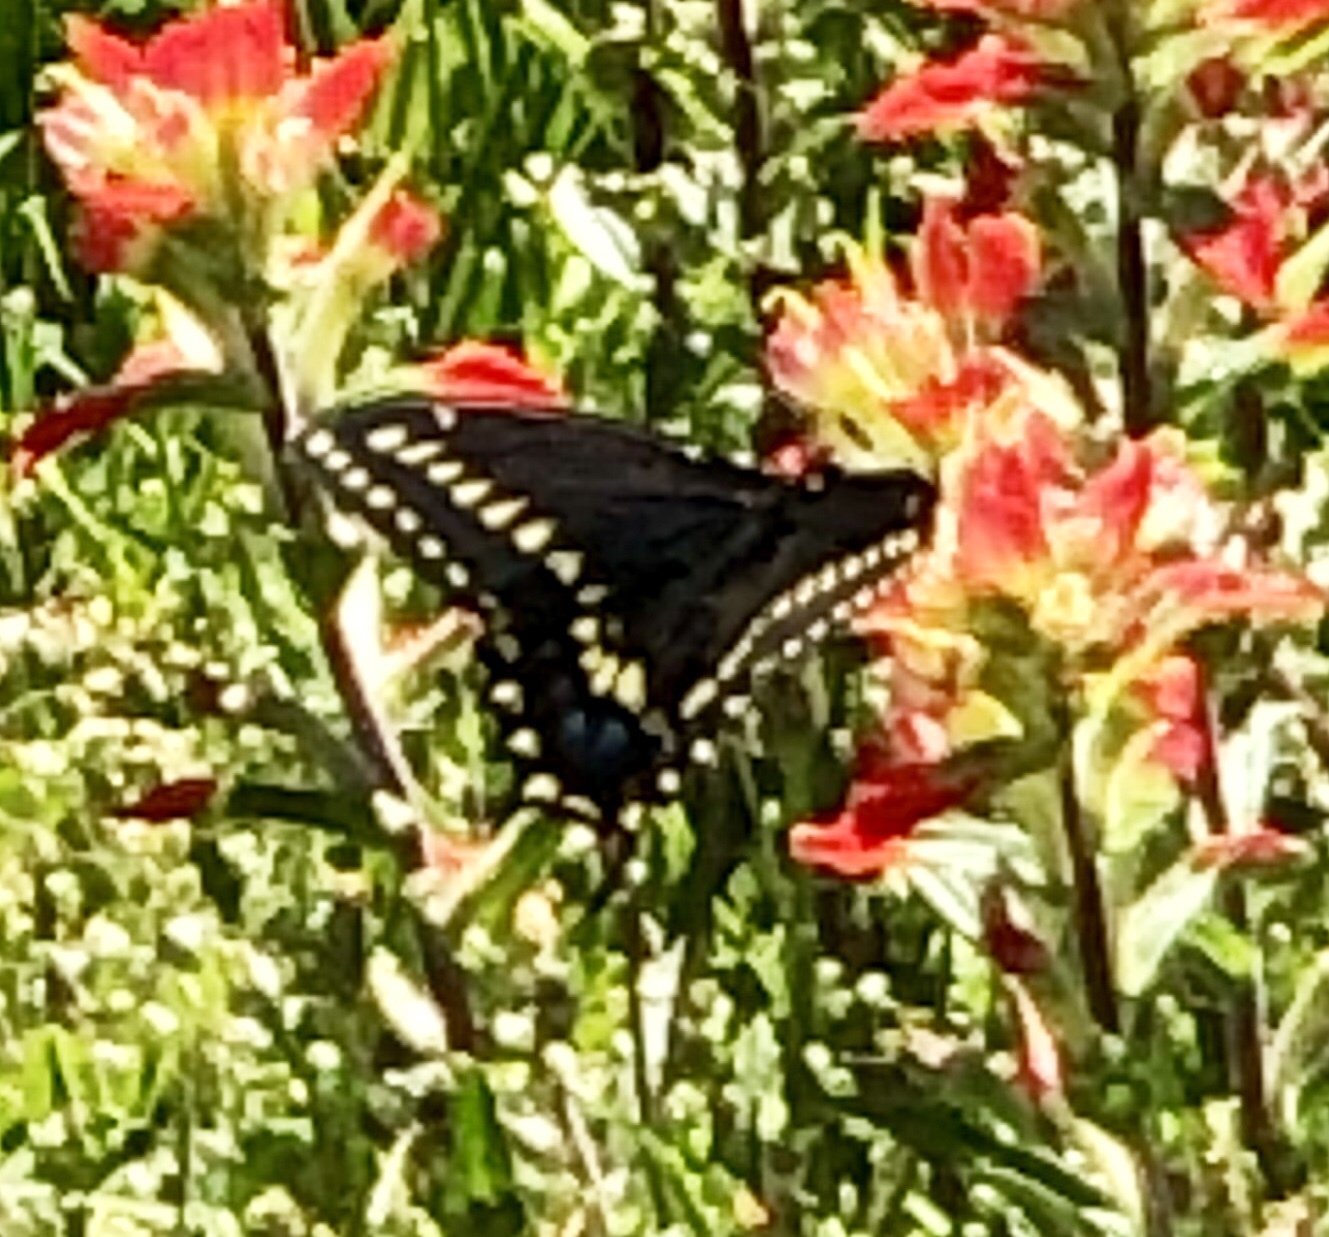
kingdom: Animalia
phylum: Arthropoda
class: Insecta
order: Lepidoptera
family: Papilionidae
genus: Papilio
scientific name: Papilio polyxenes
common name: Black swallowtail
